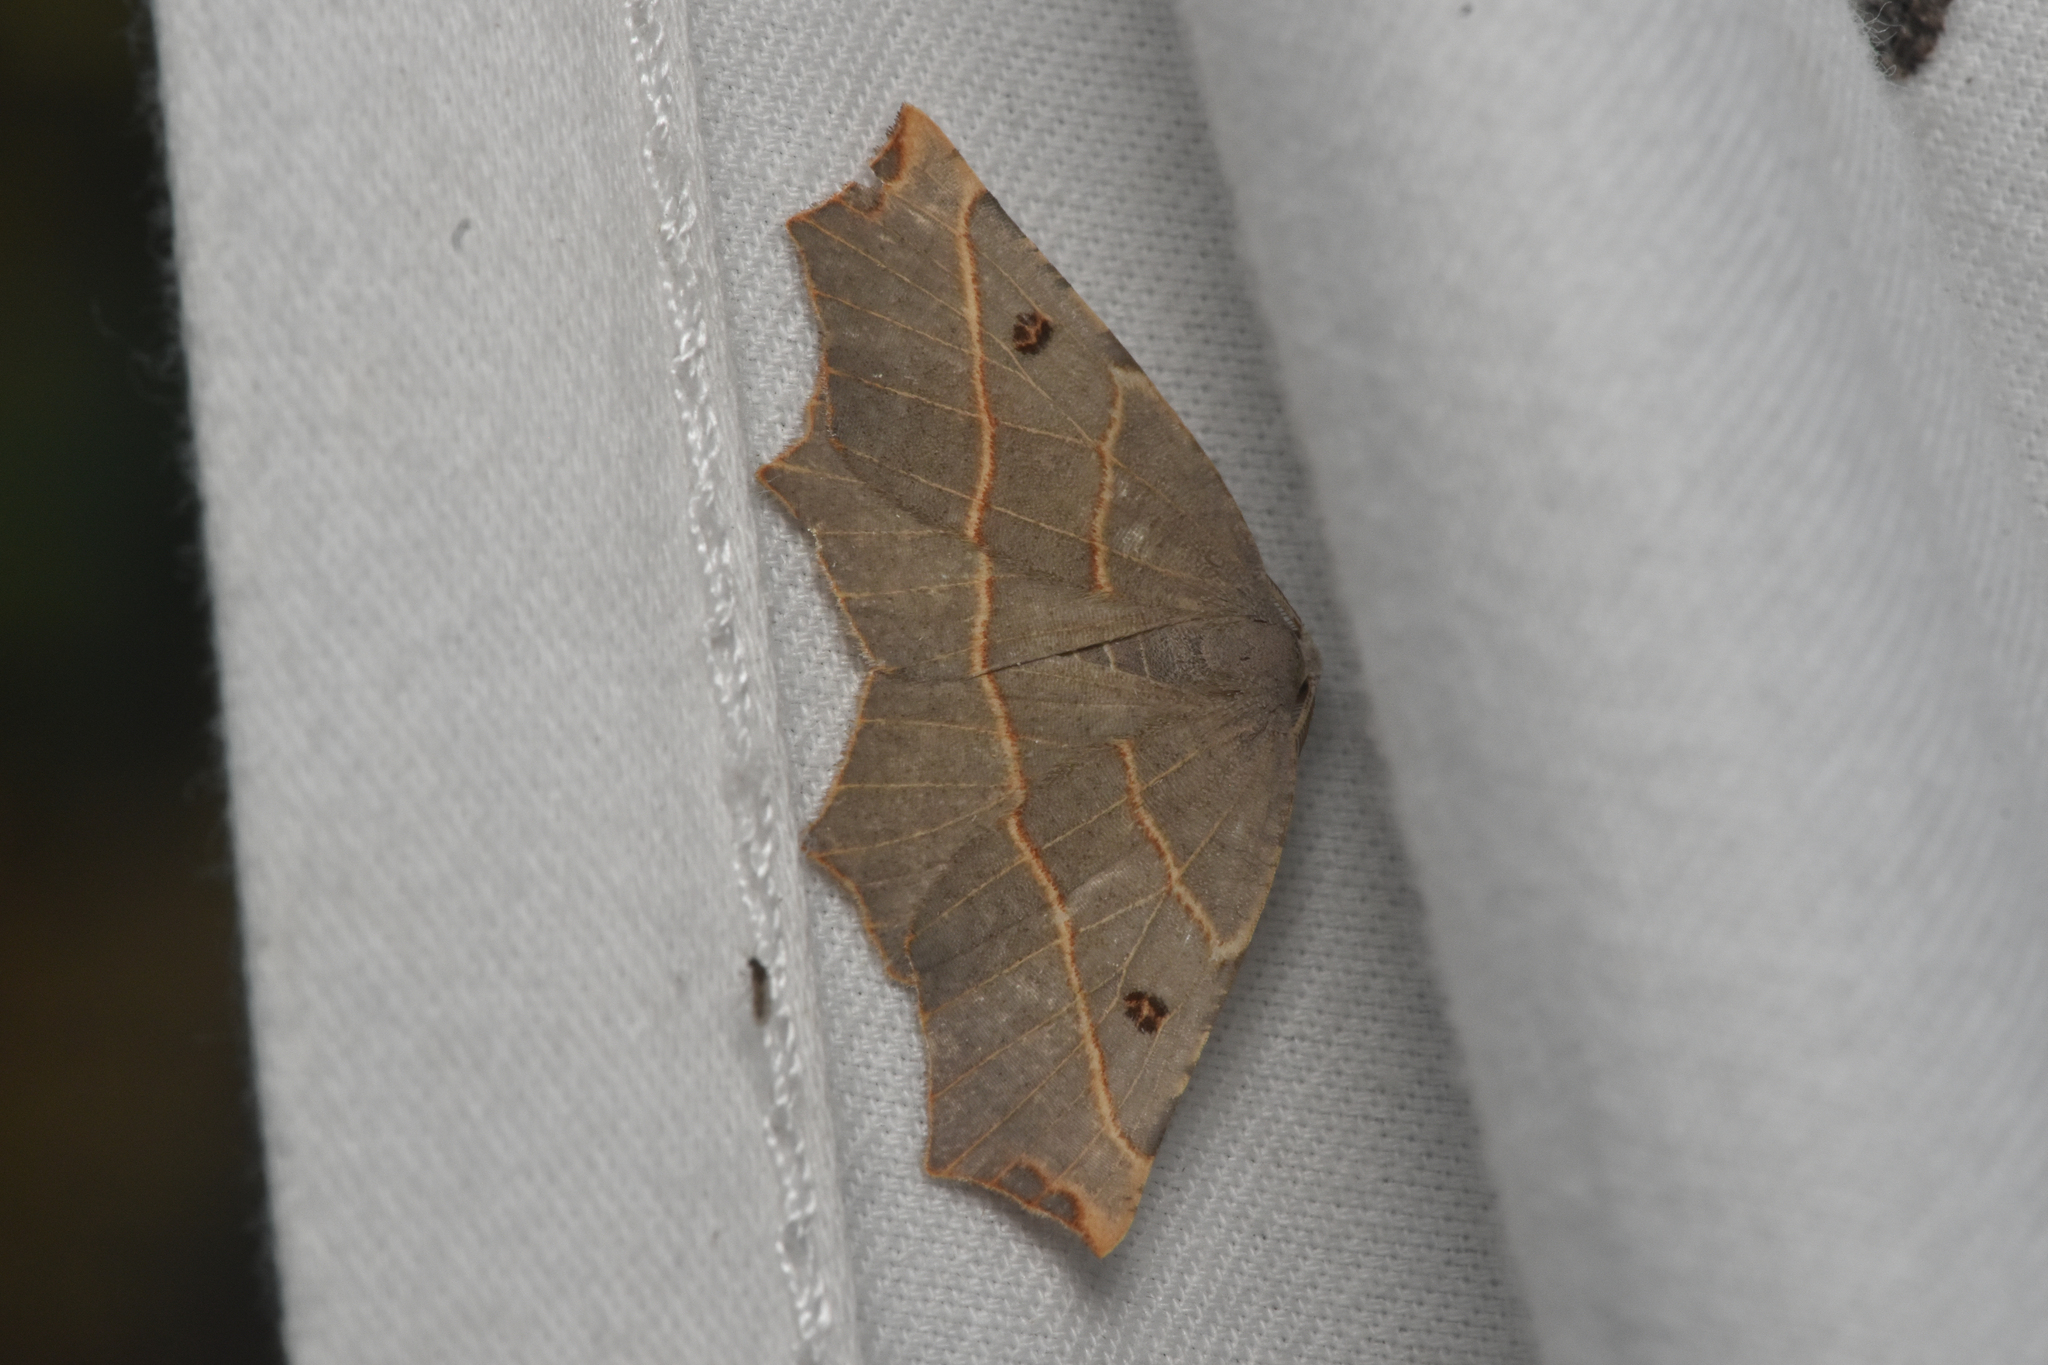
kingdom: Animalia
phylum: Arthropoda
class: Insecta
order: Lepidoptera
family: Geometridae
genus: Metanema
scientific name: Metanema inatomaria
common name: Pale metanema
